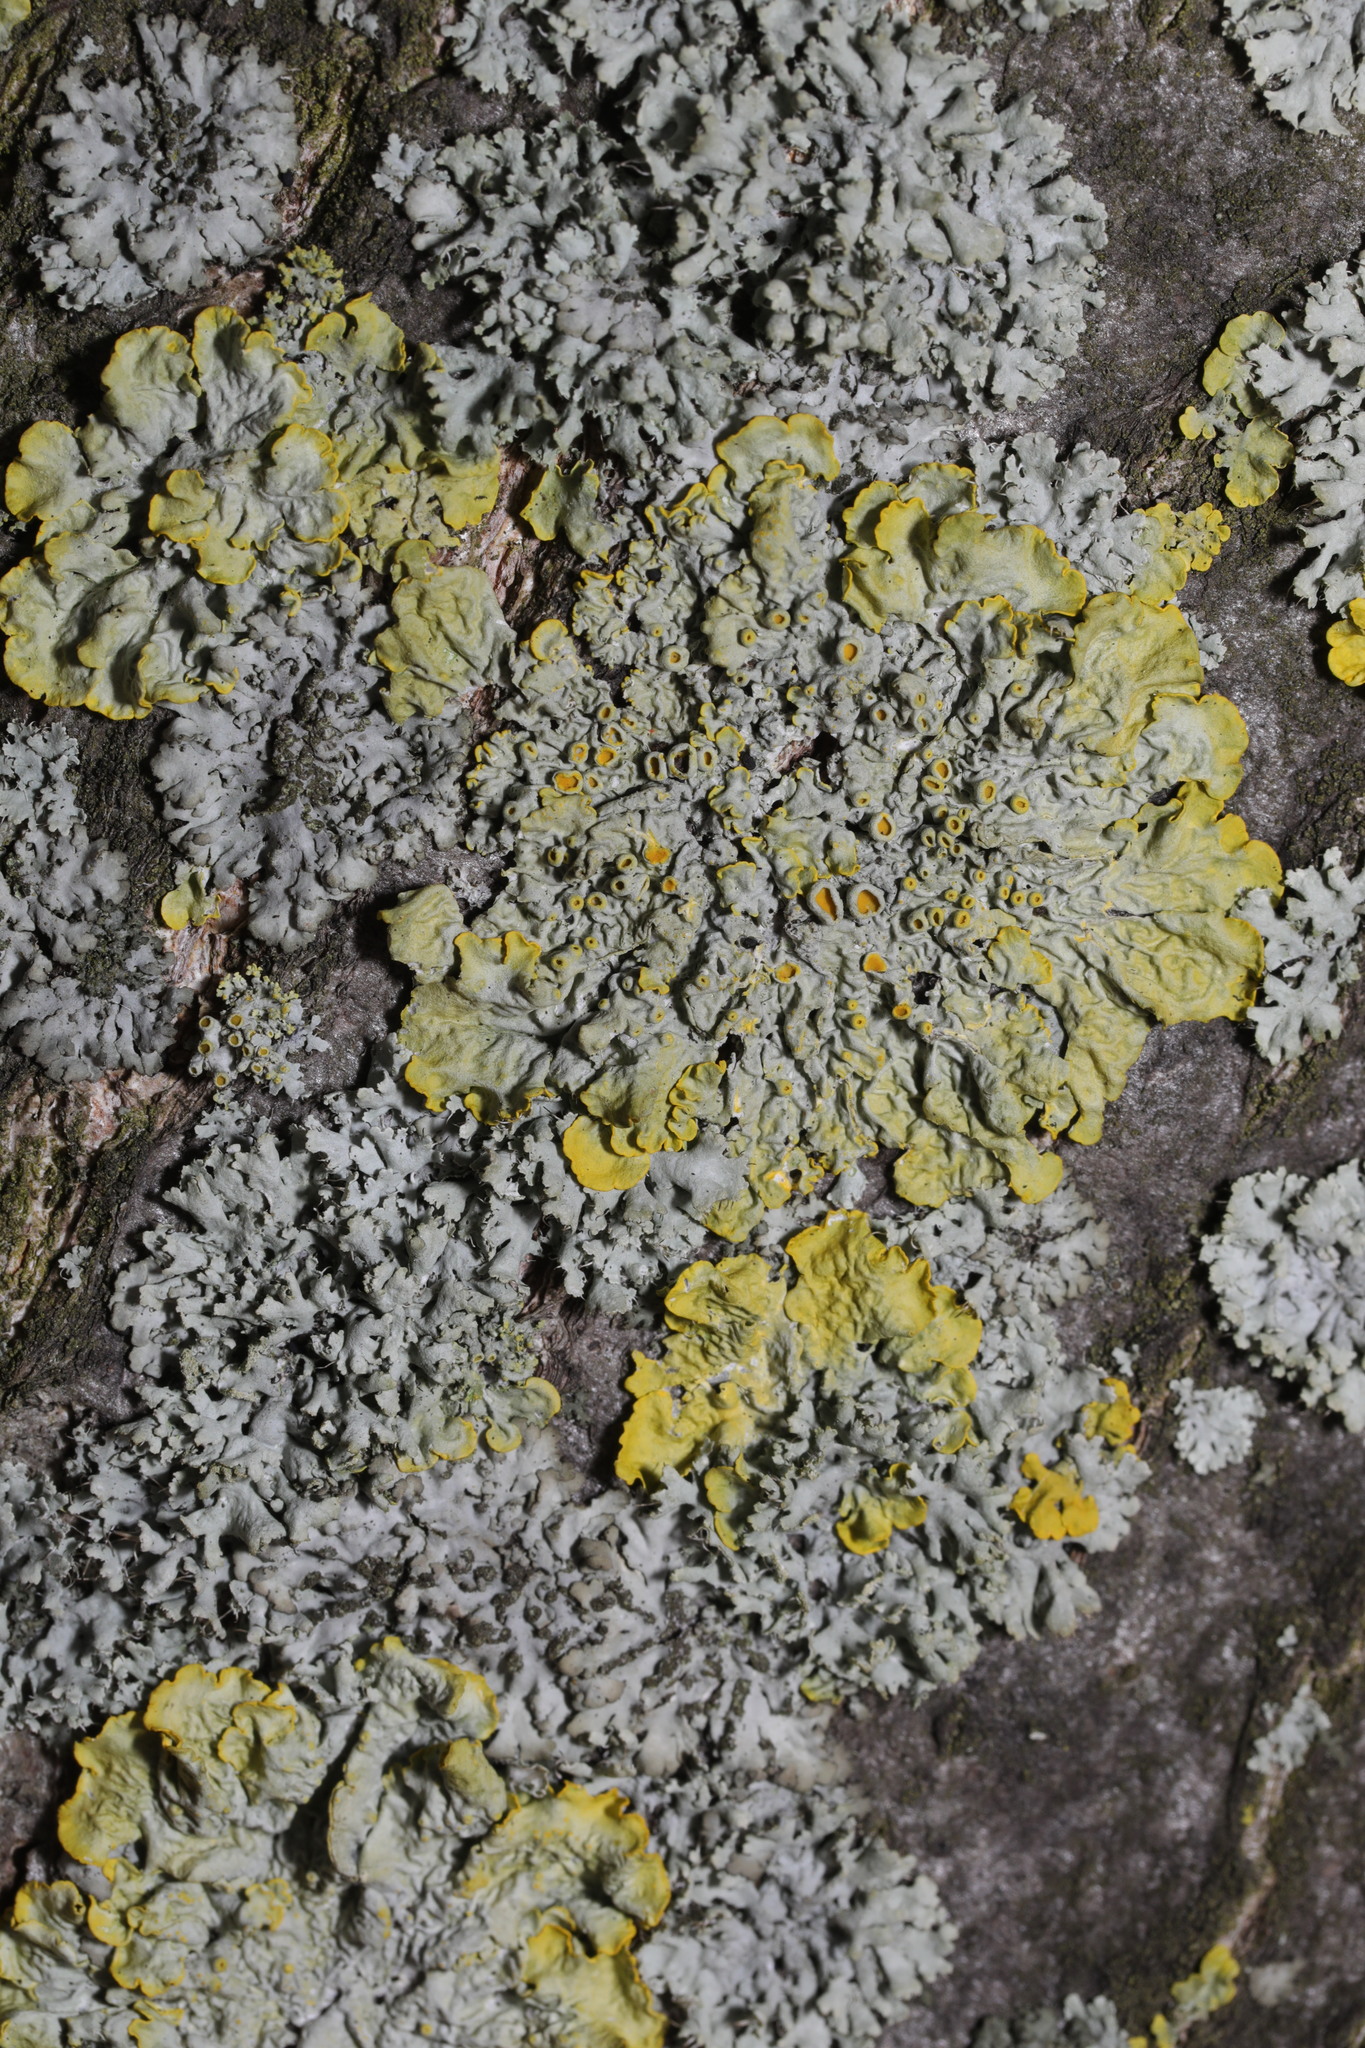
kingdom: Fungi
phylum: Ascomycota
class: Lecanoromycetes
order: Teloschistales
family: Teloschistaceae
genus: Xanthoria
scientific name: Xanthoria parietina
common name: Common orange lichen
